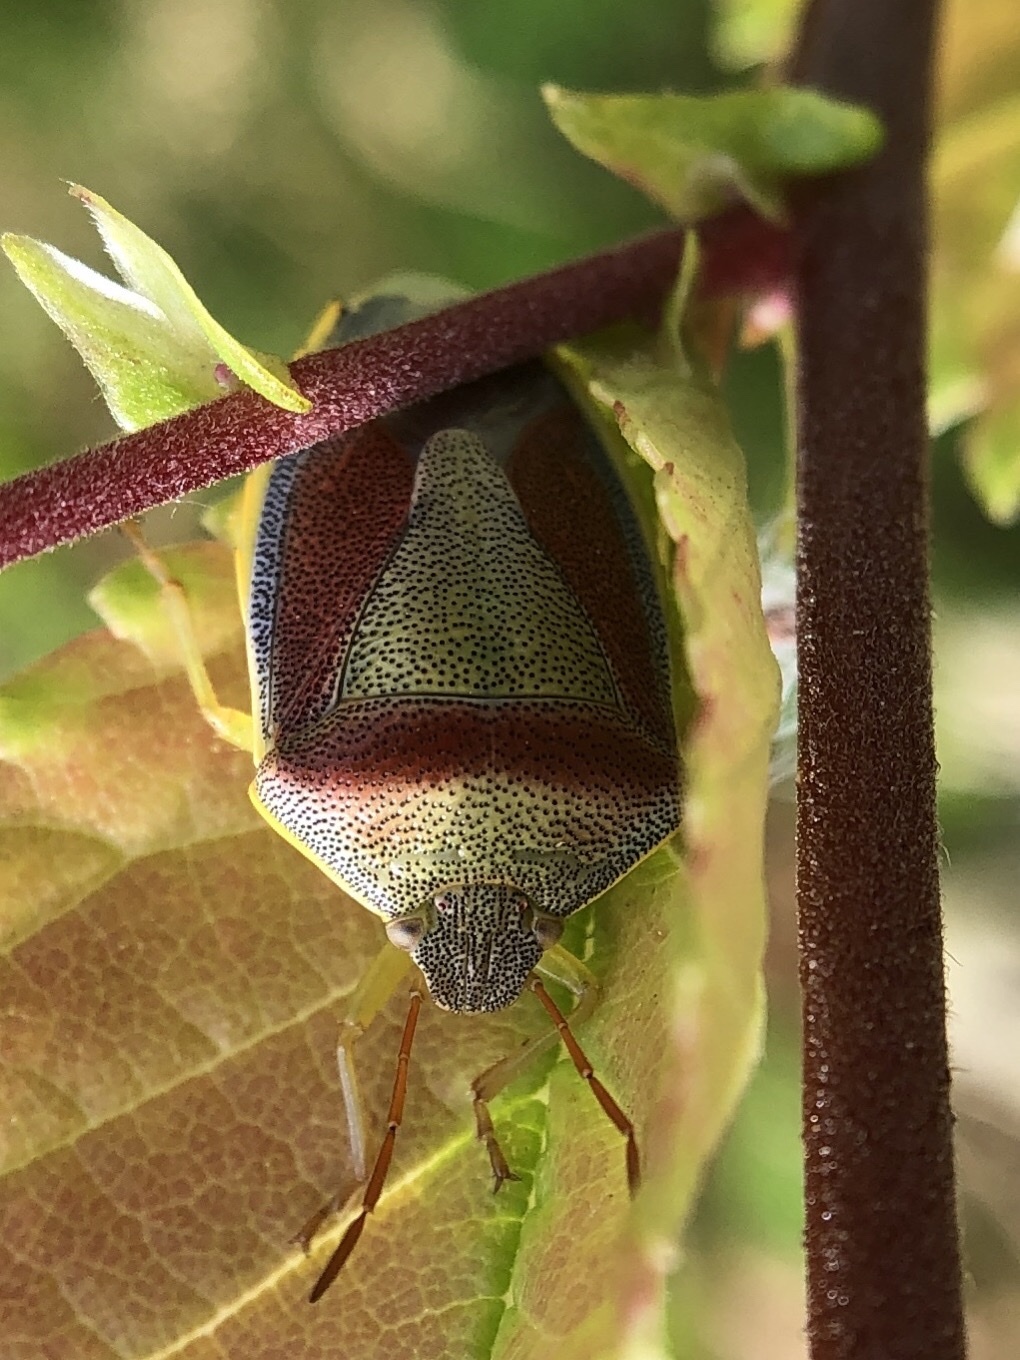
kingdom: Animalia
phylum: Arthropoda
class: Insecta
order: Hemiptera
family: Pentatomidae
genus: Piezodorus
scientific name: Piezodorus lituratus
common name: Stink bug
